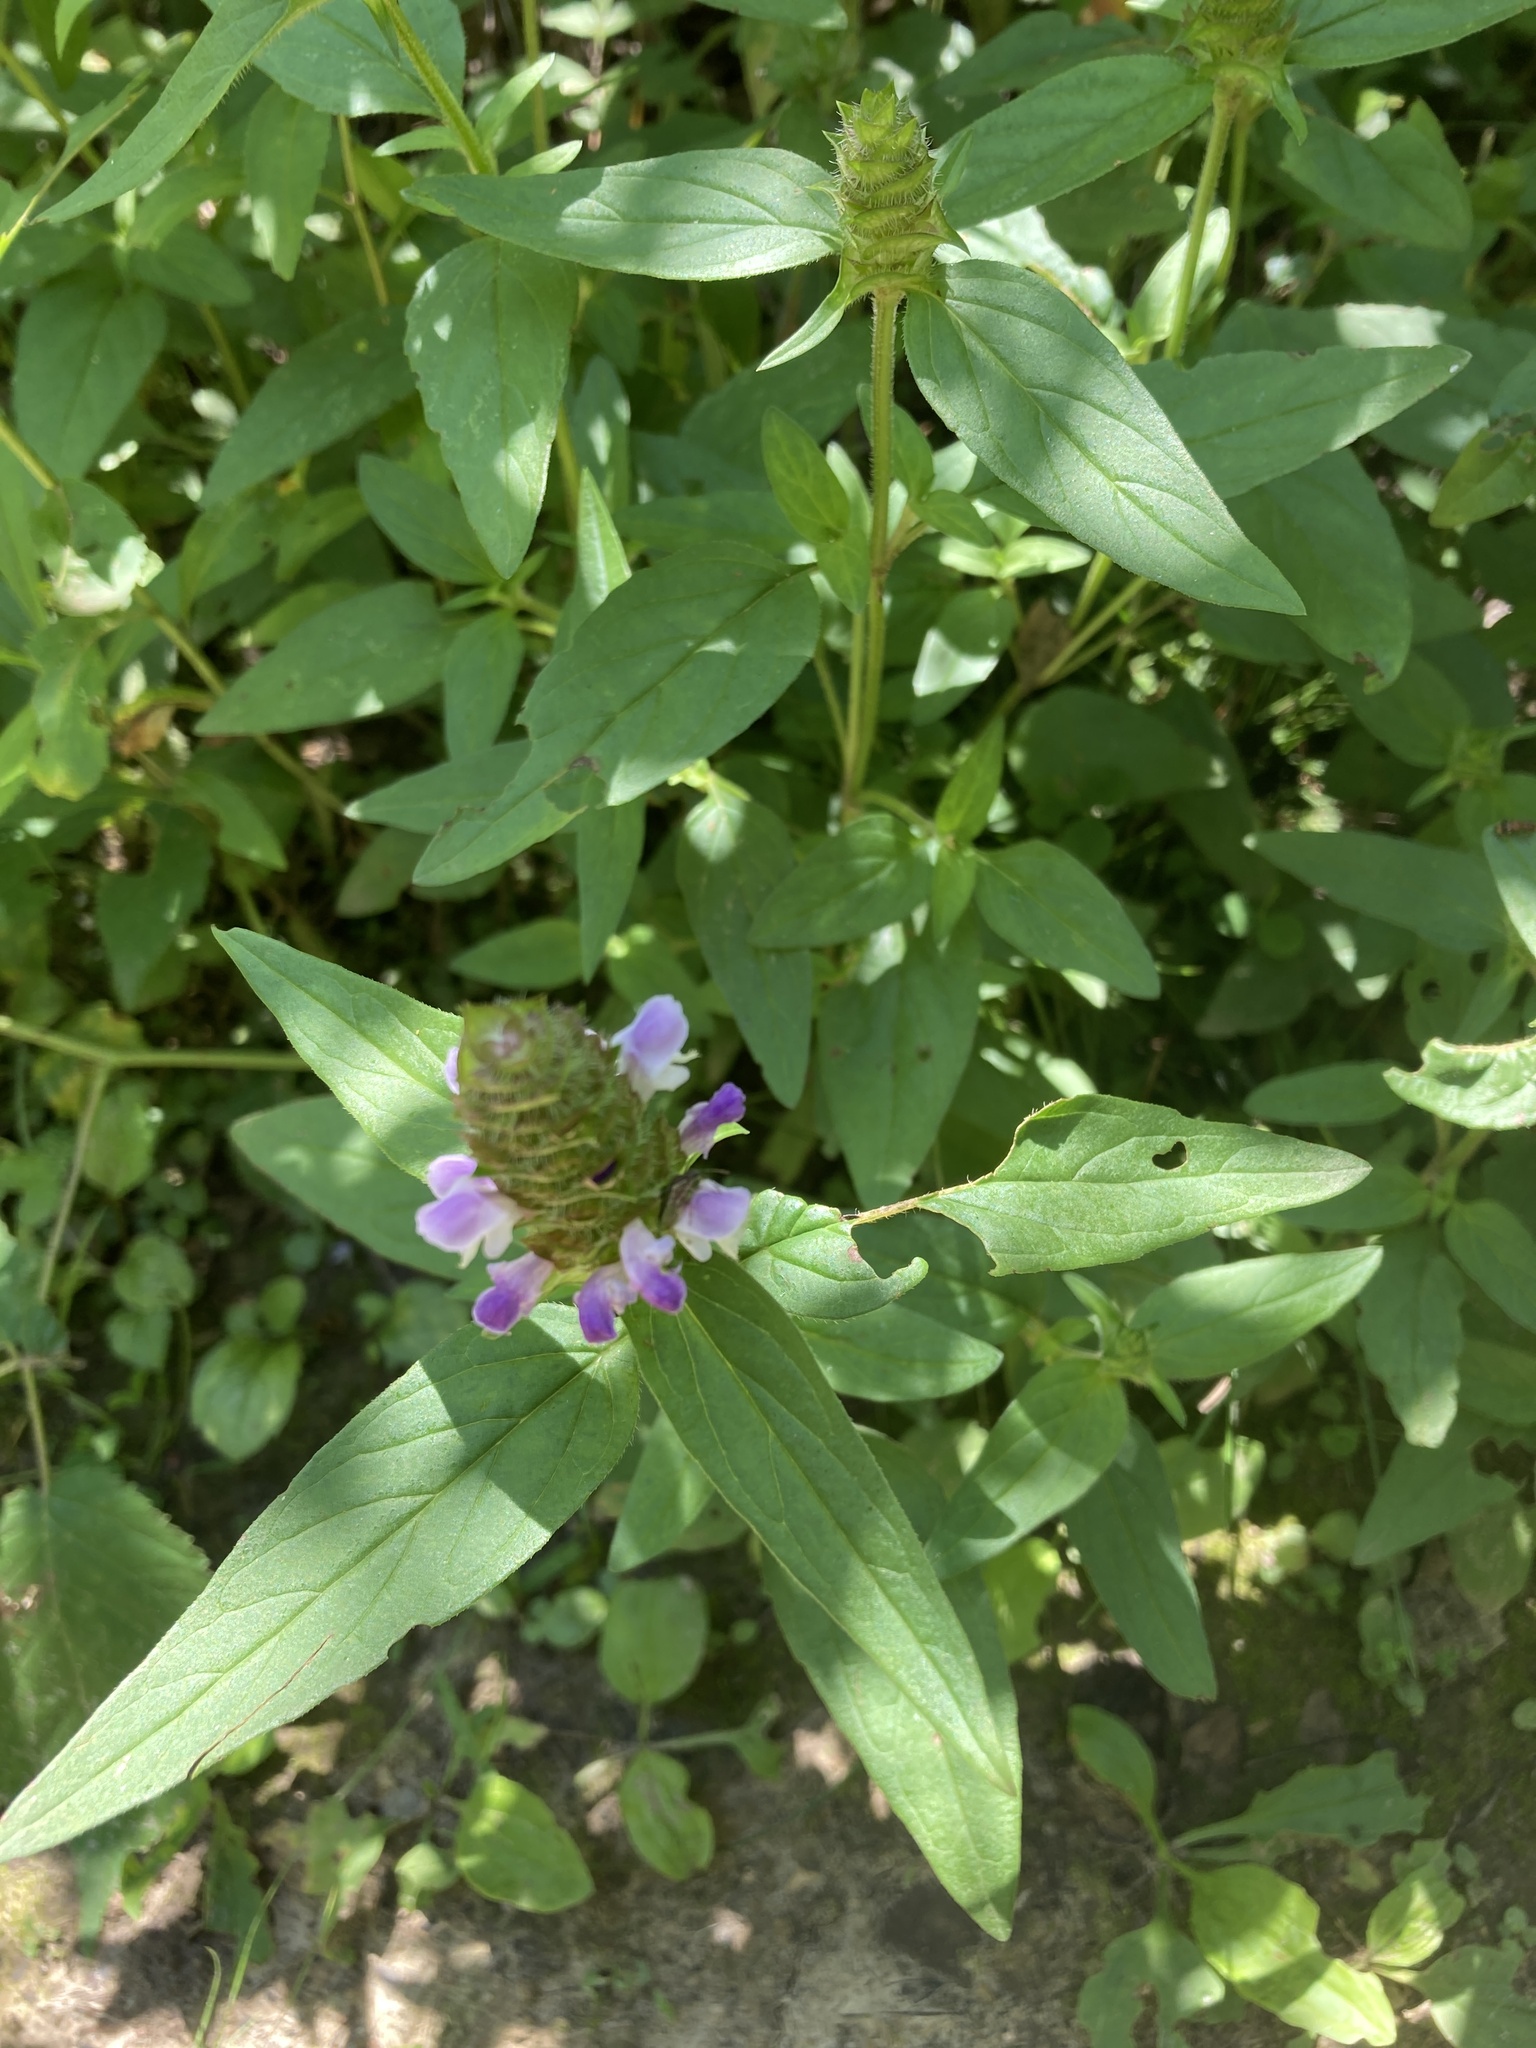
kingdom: Plantae
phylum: Tracheophyta
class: Magnoliopsida
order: Lamiales
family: Lamiaceae
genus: Prunella
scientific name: Prunella vulgaris
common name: Heal-all
